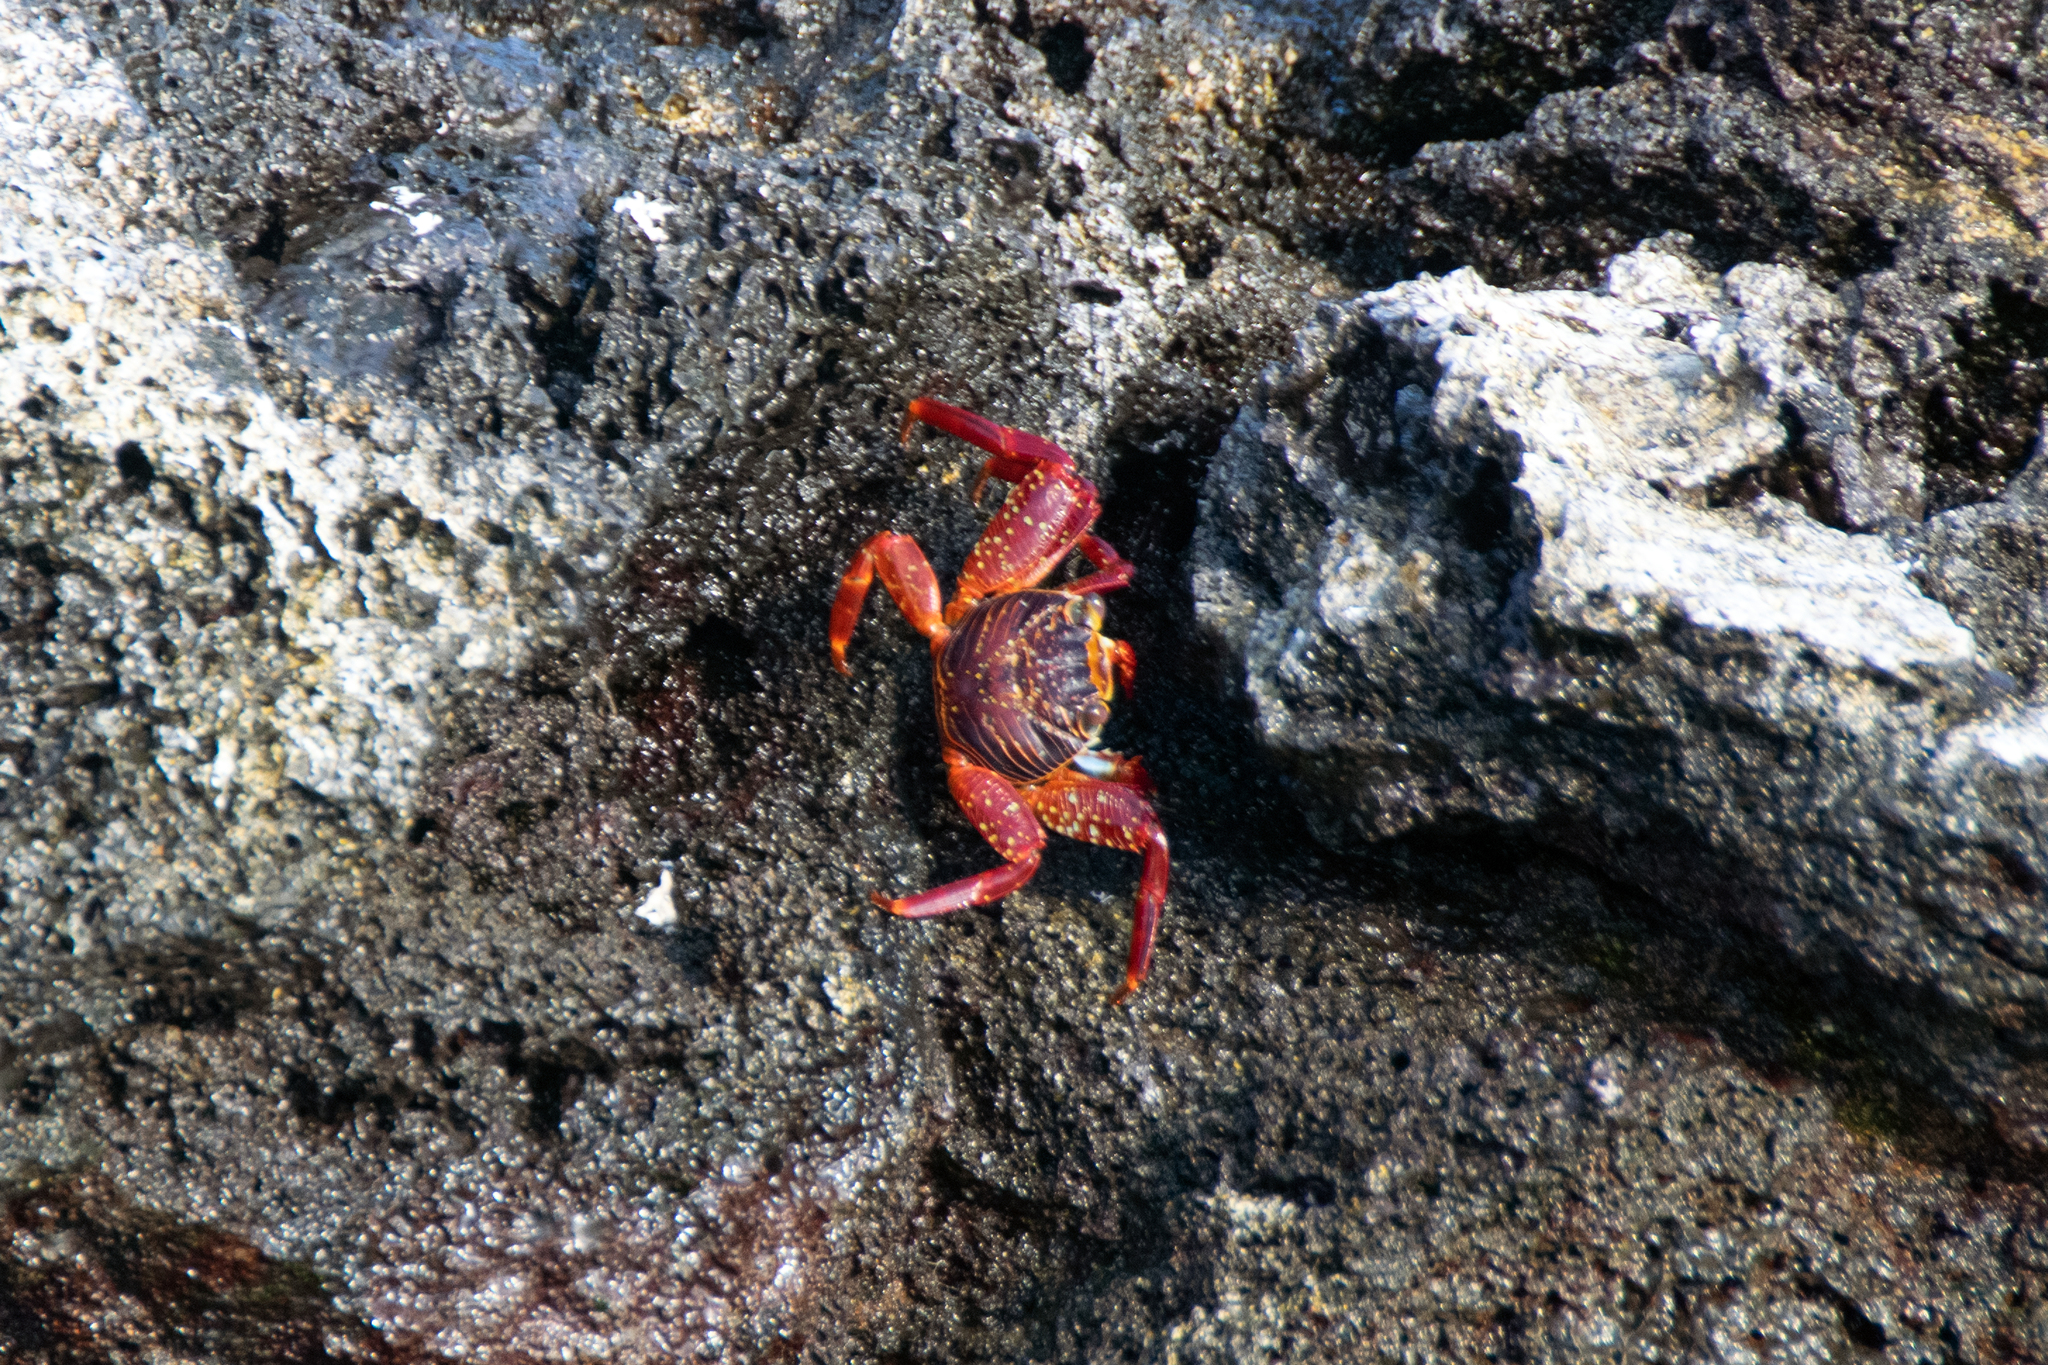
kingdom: Animalia
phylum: Arthropoda
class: Malacostraca
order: Decapoda
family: Grapsidae
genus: Grapsus
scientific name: Grapsus grapsus
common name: Sally lightfoot
